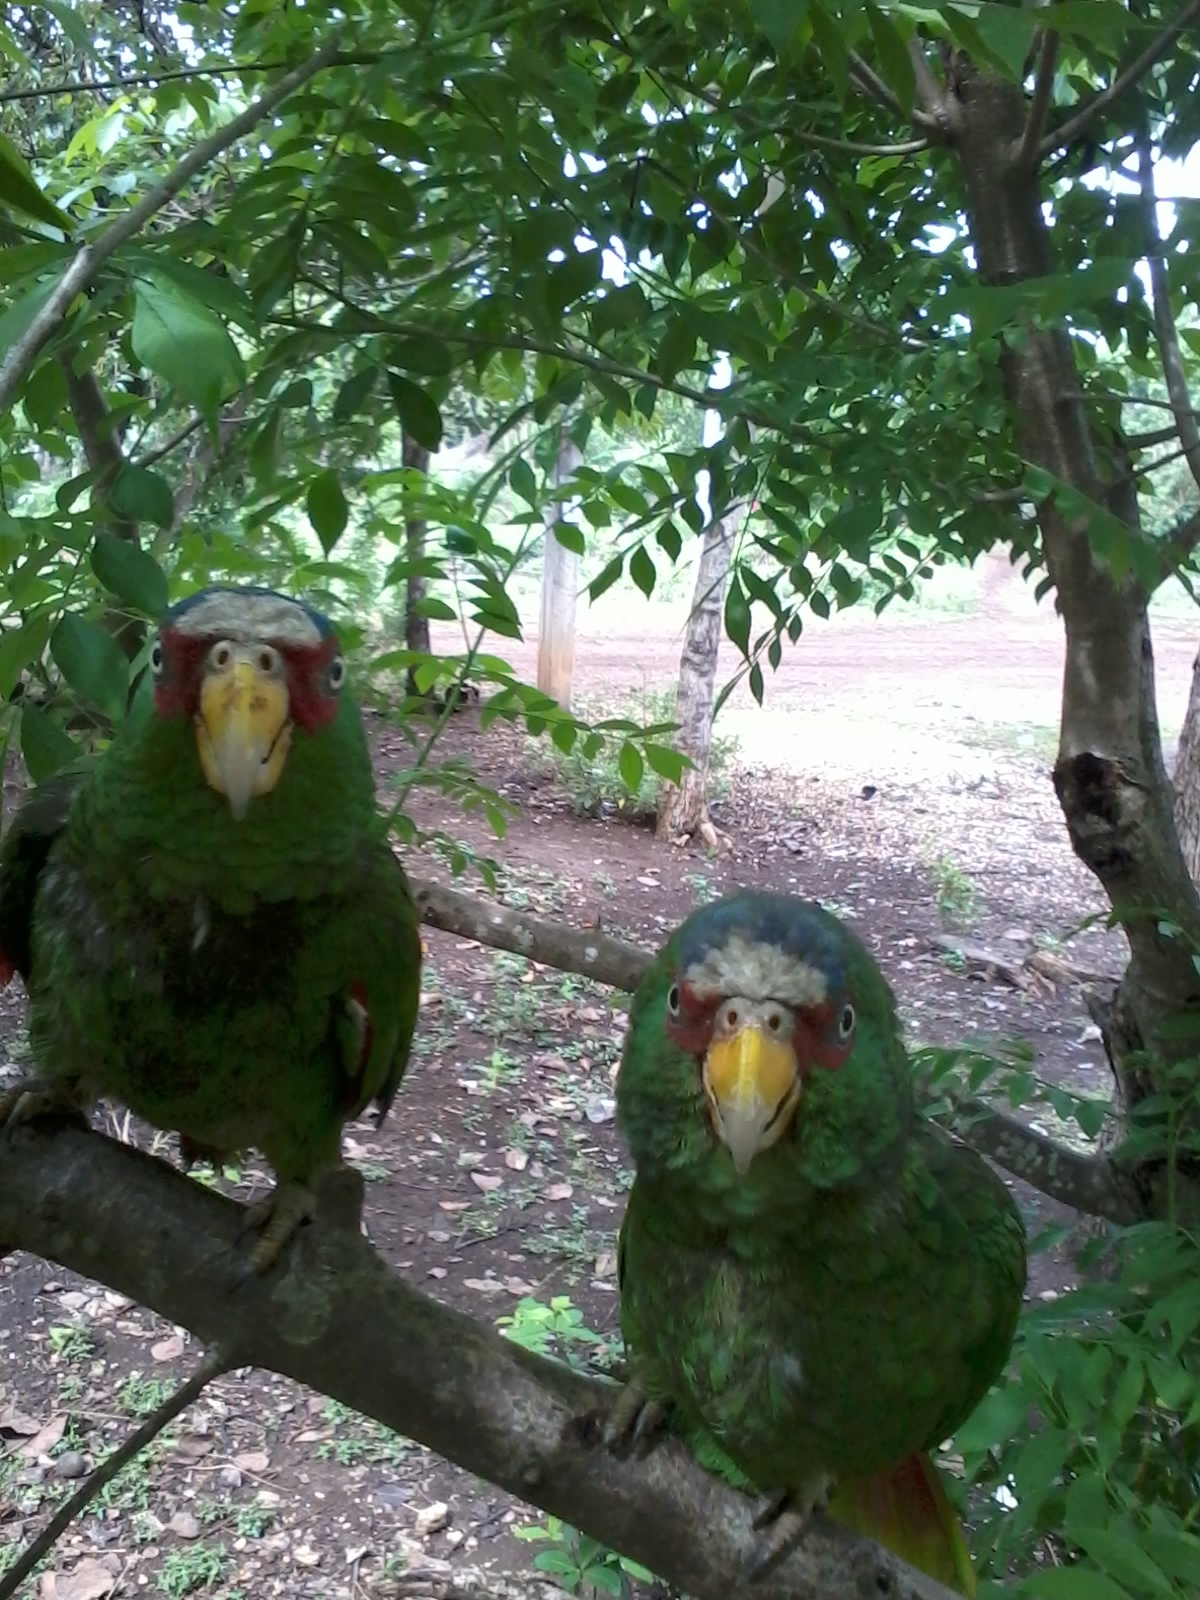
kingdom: Animalia
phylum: Chordata
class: Aves
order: Psittaciformes
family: Psittacidae
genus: Amazona
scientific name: Amazona albifrons
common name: White-fronted amazon
